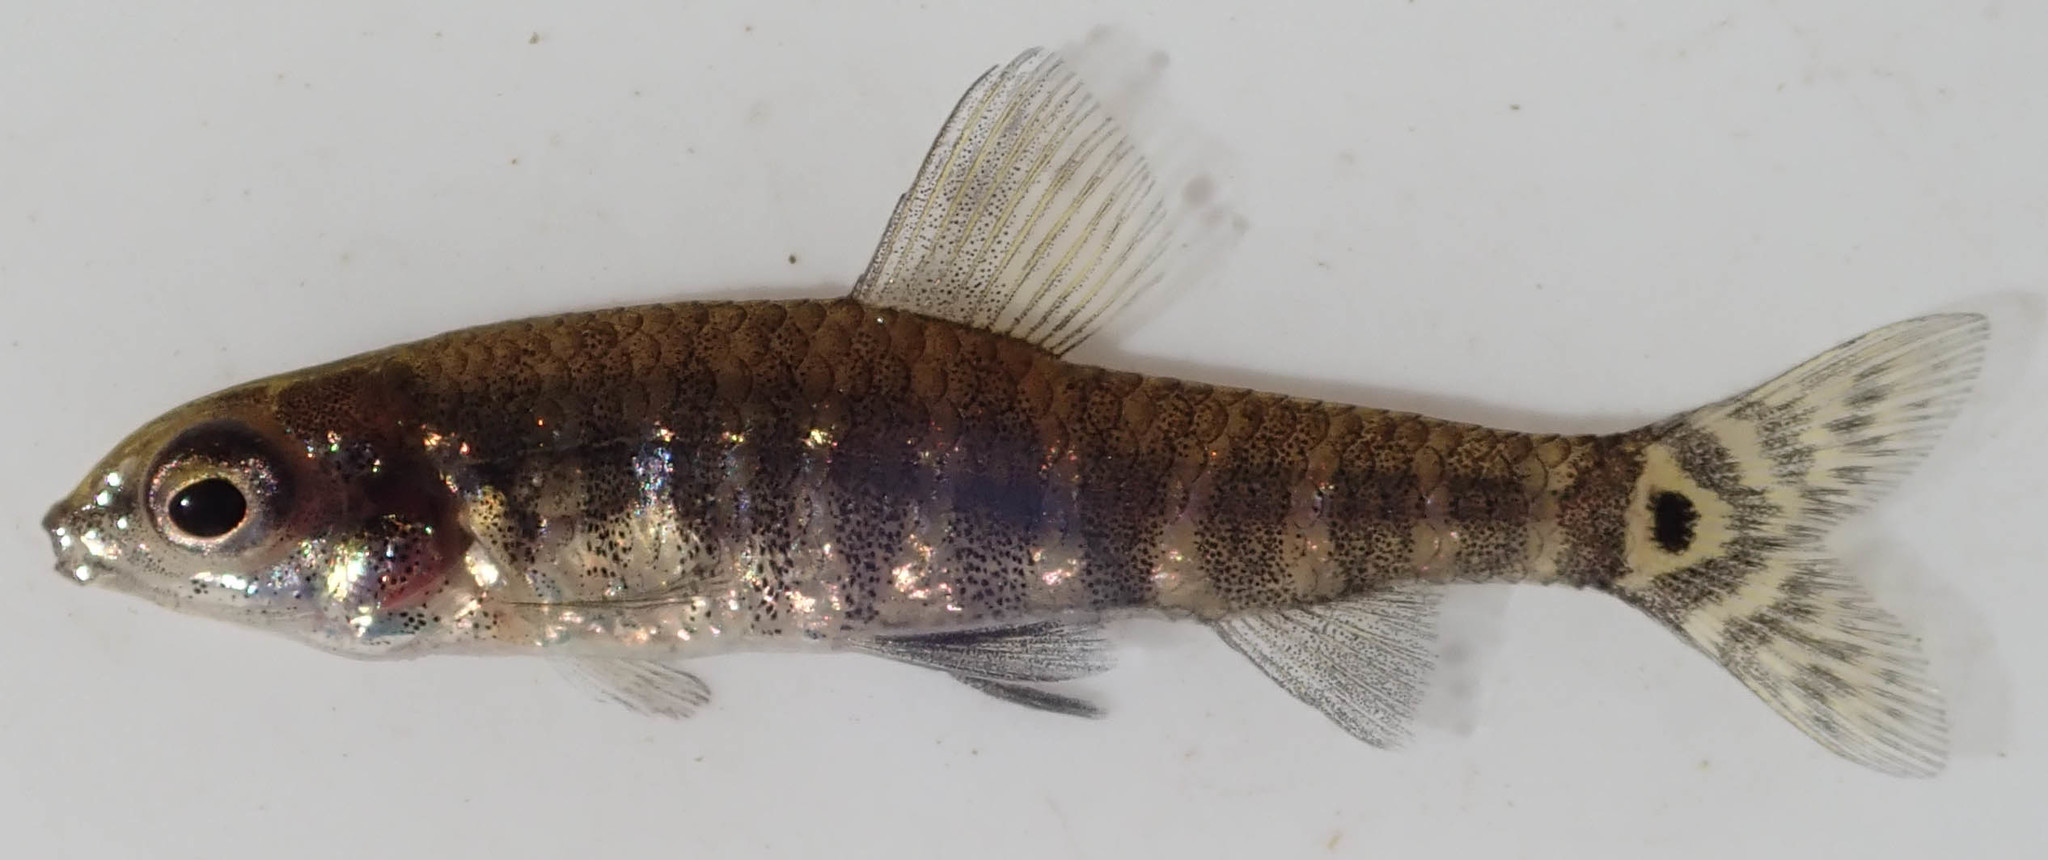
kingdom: Animalia
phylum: Chordata
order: Characiformes
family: Distichodontidae
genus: Nannocharax
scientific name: Nannocharax machadoi
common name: Dwarf citharine
